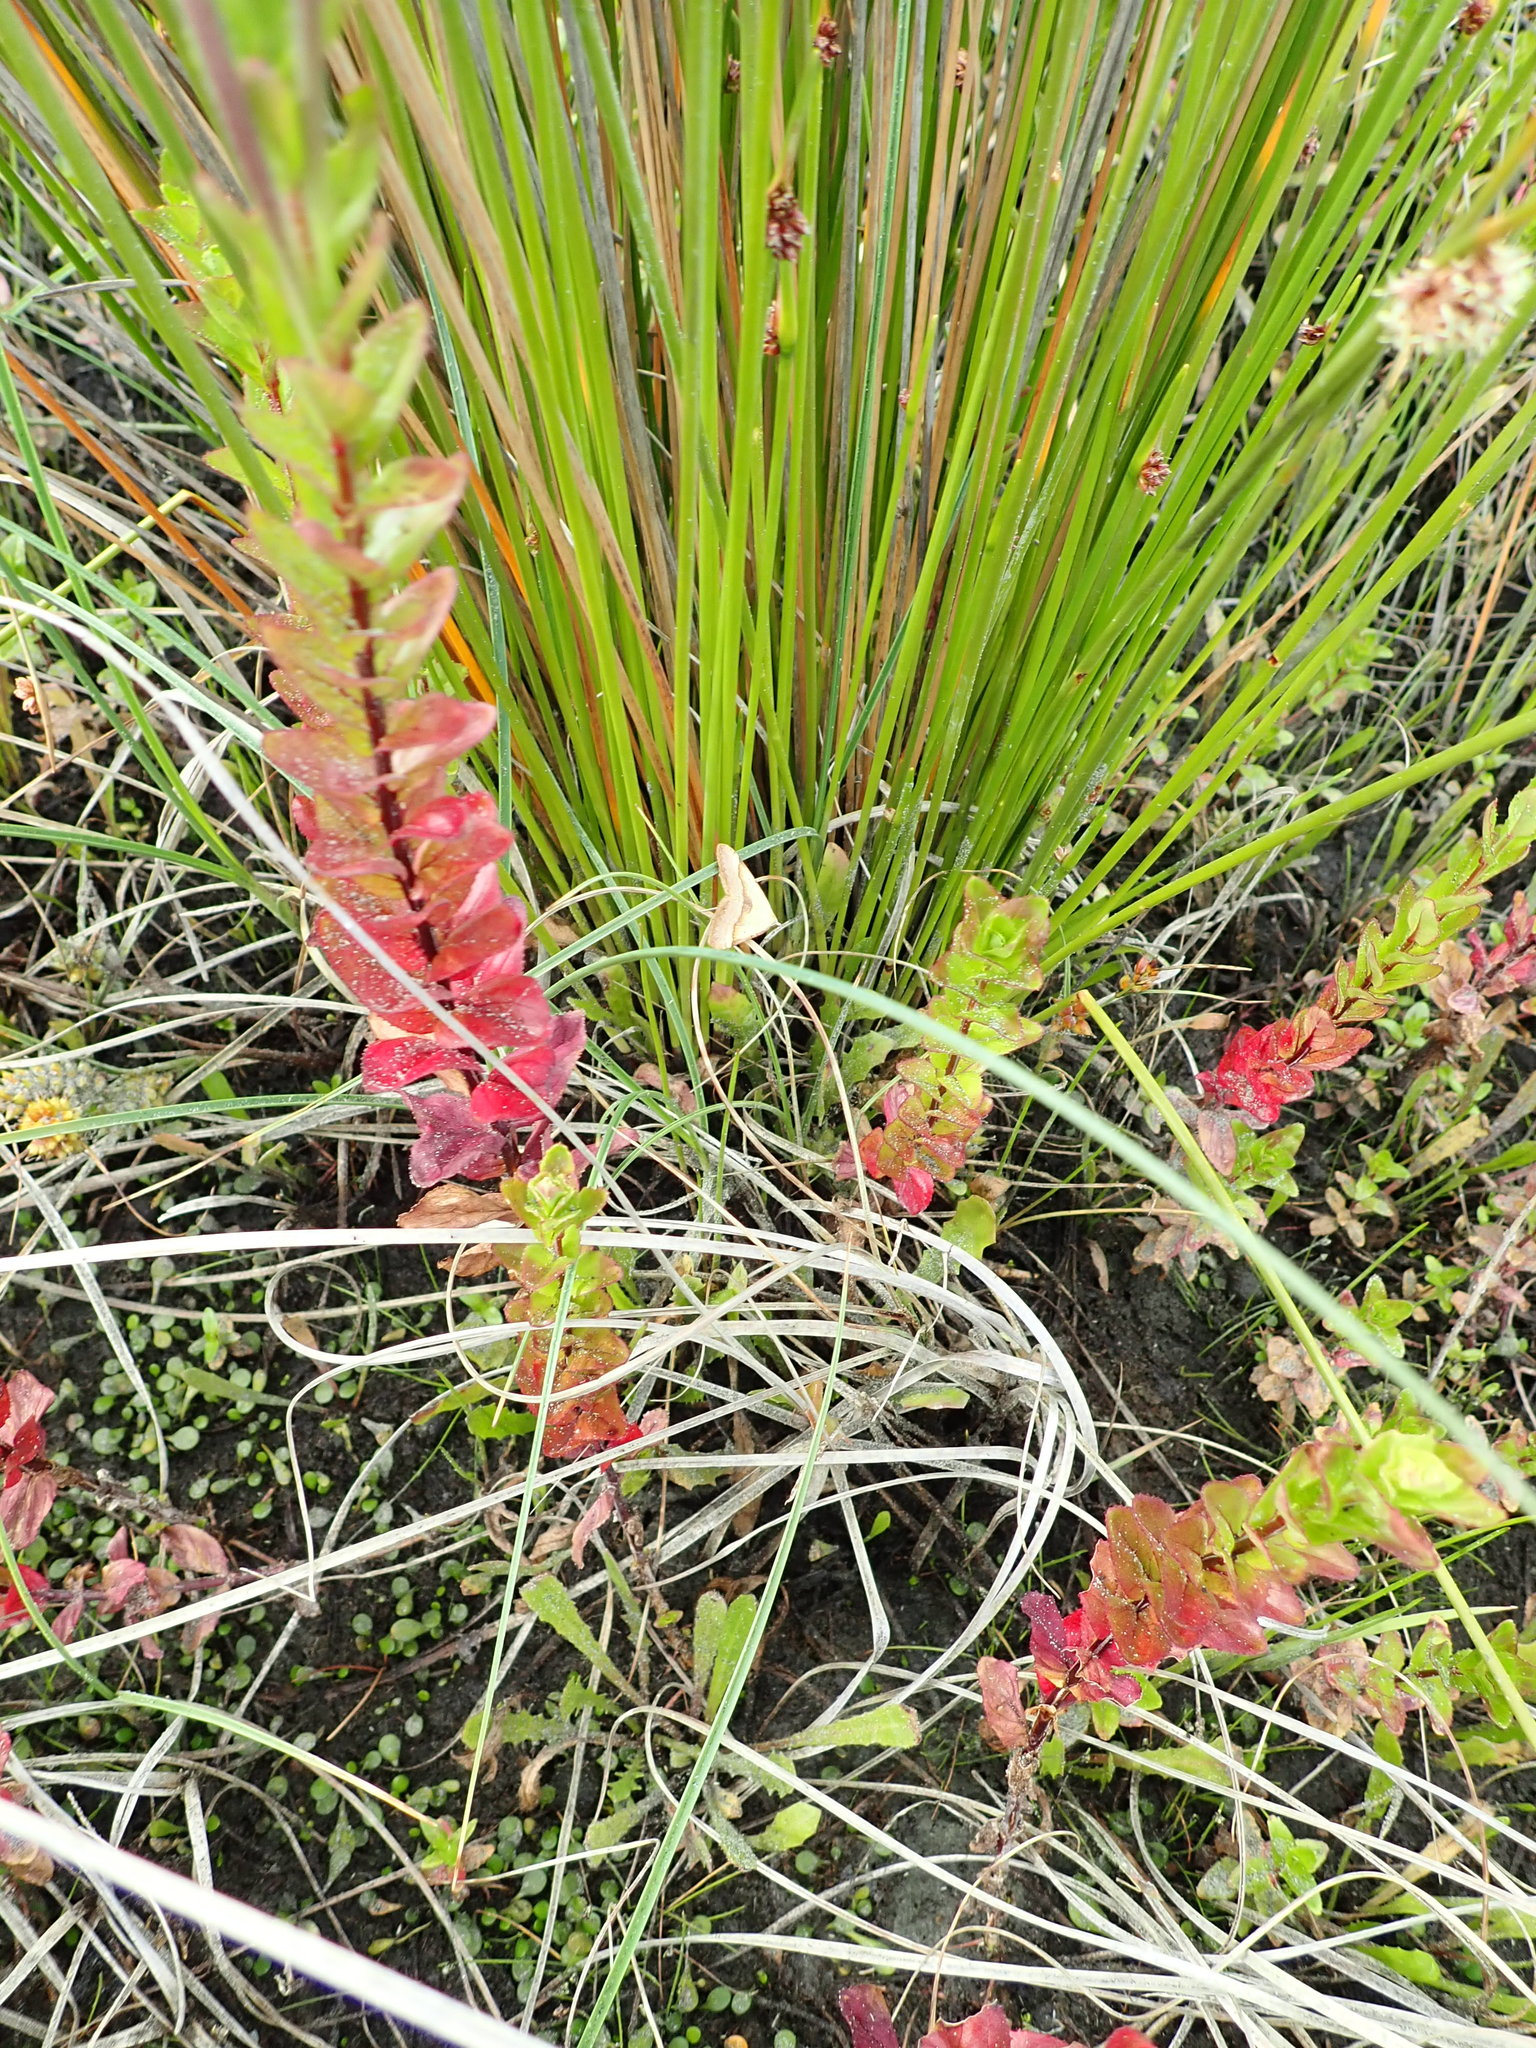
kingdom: Animalia
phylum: Arthropoda
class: Insecta
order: Lepidoptera
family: Geometridae
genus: Anachloris
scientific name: Anachloris subochraria
